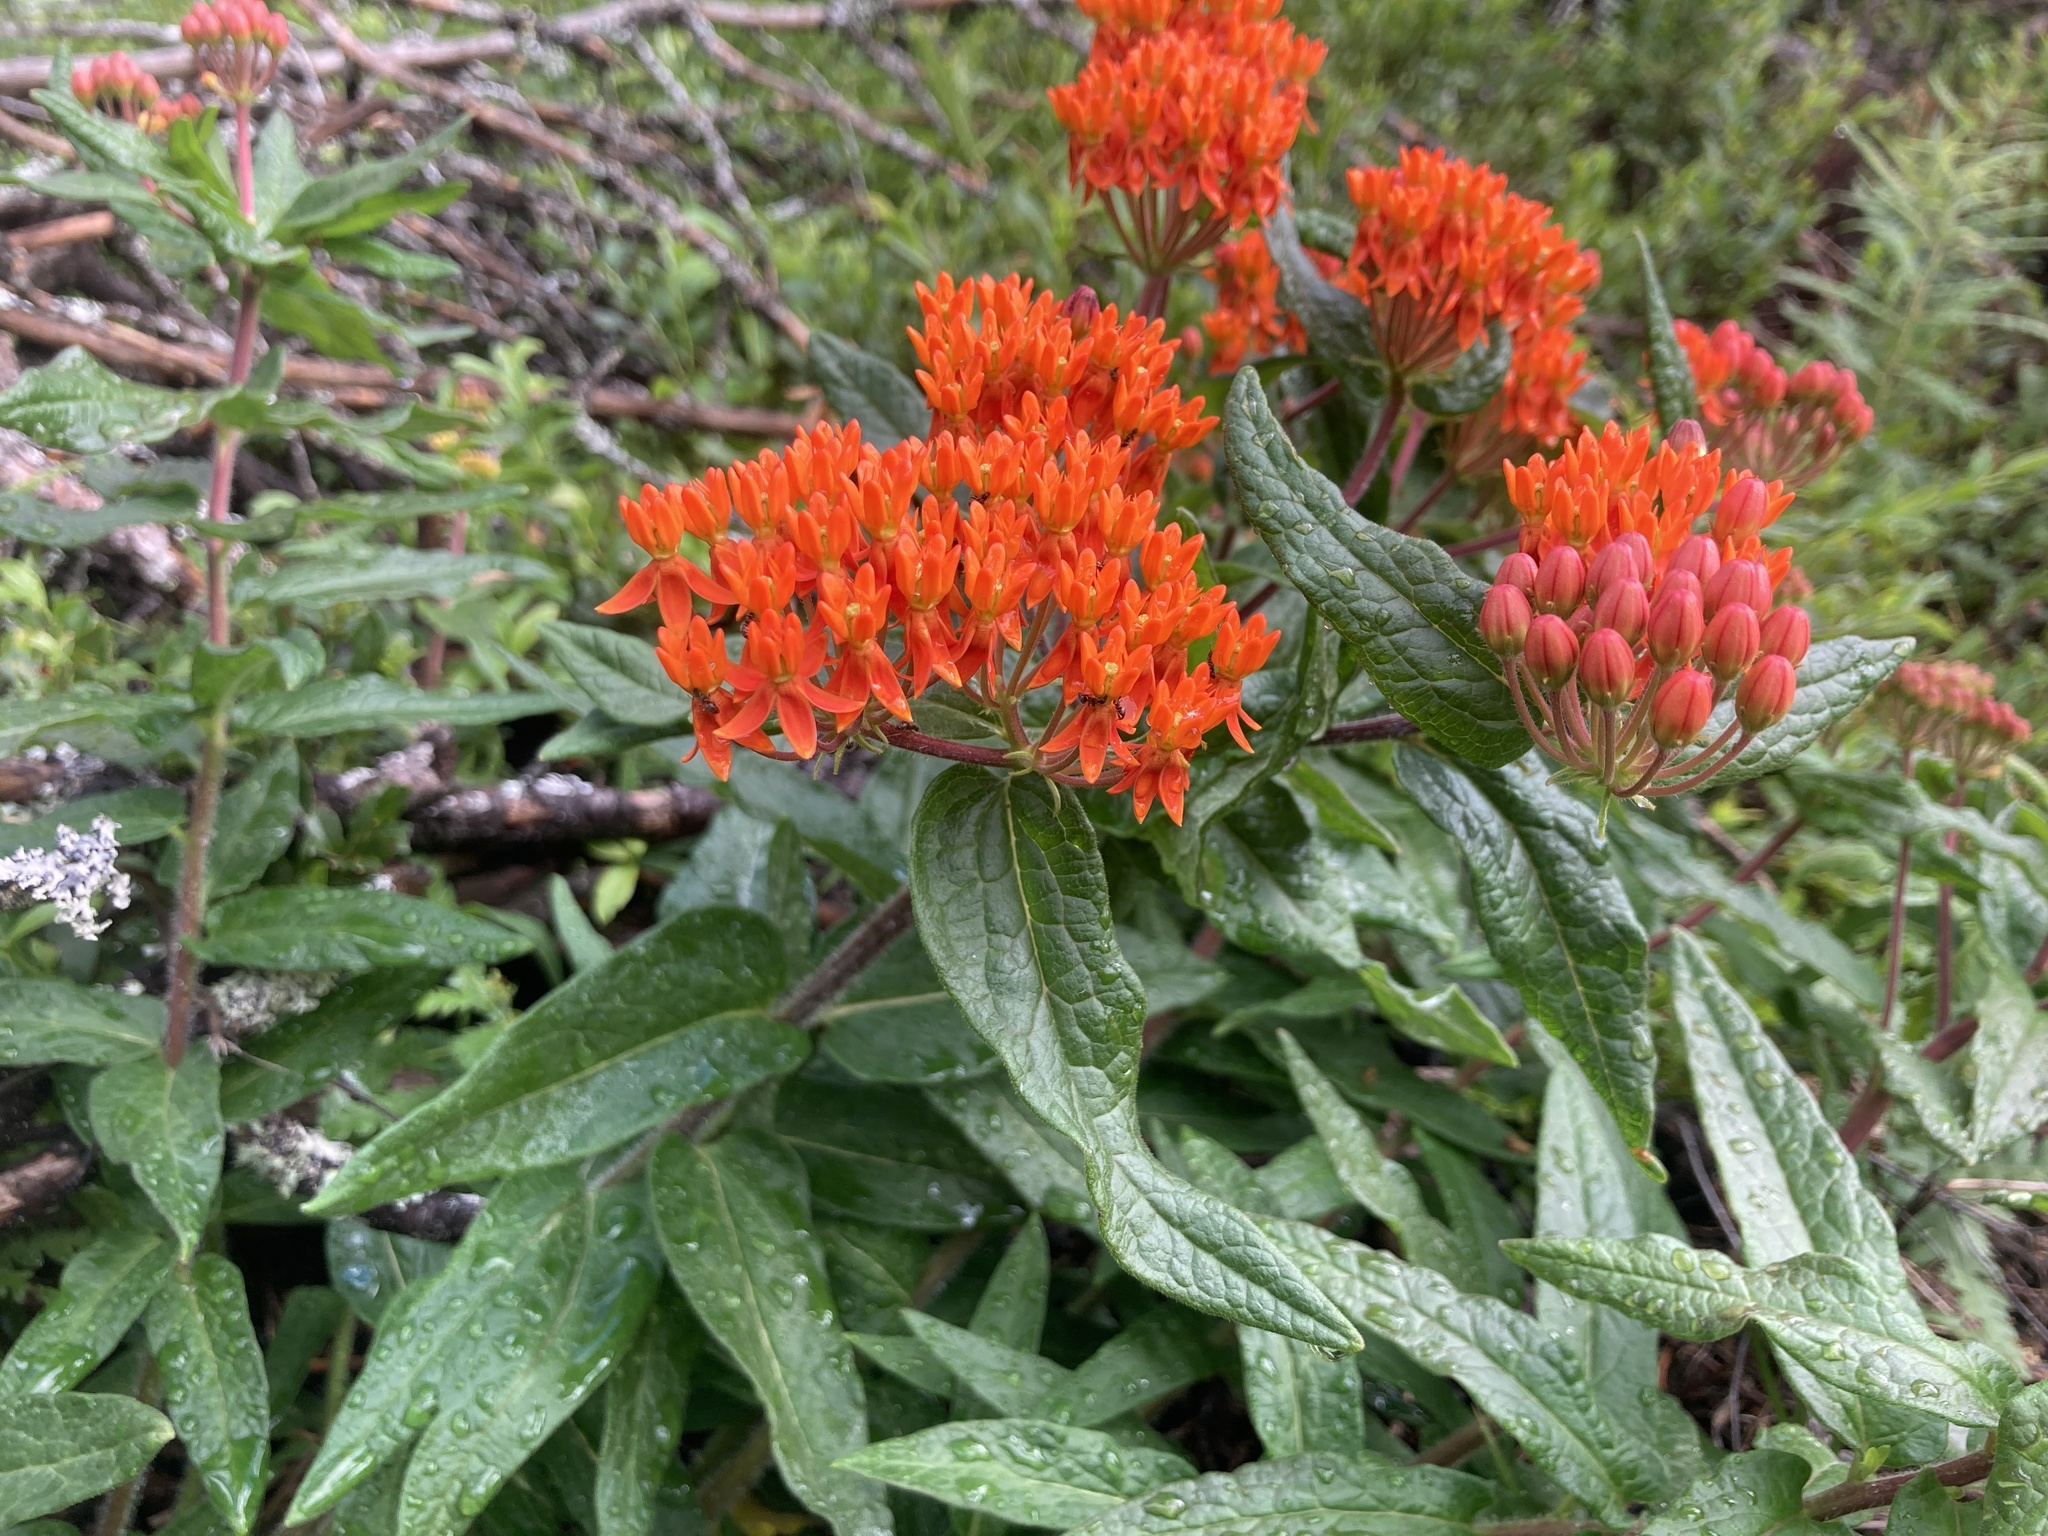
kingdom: Plantae
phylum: Tracheophyta
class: Magnoliopsida
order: Gentianales
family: Apocynaceae
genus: Asclepias
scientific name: Asclepias tuberosa
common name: Butterfly milkweed
